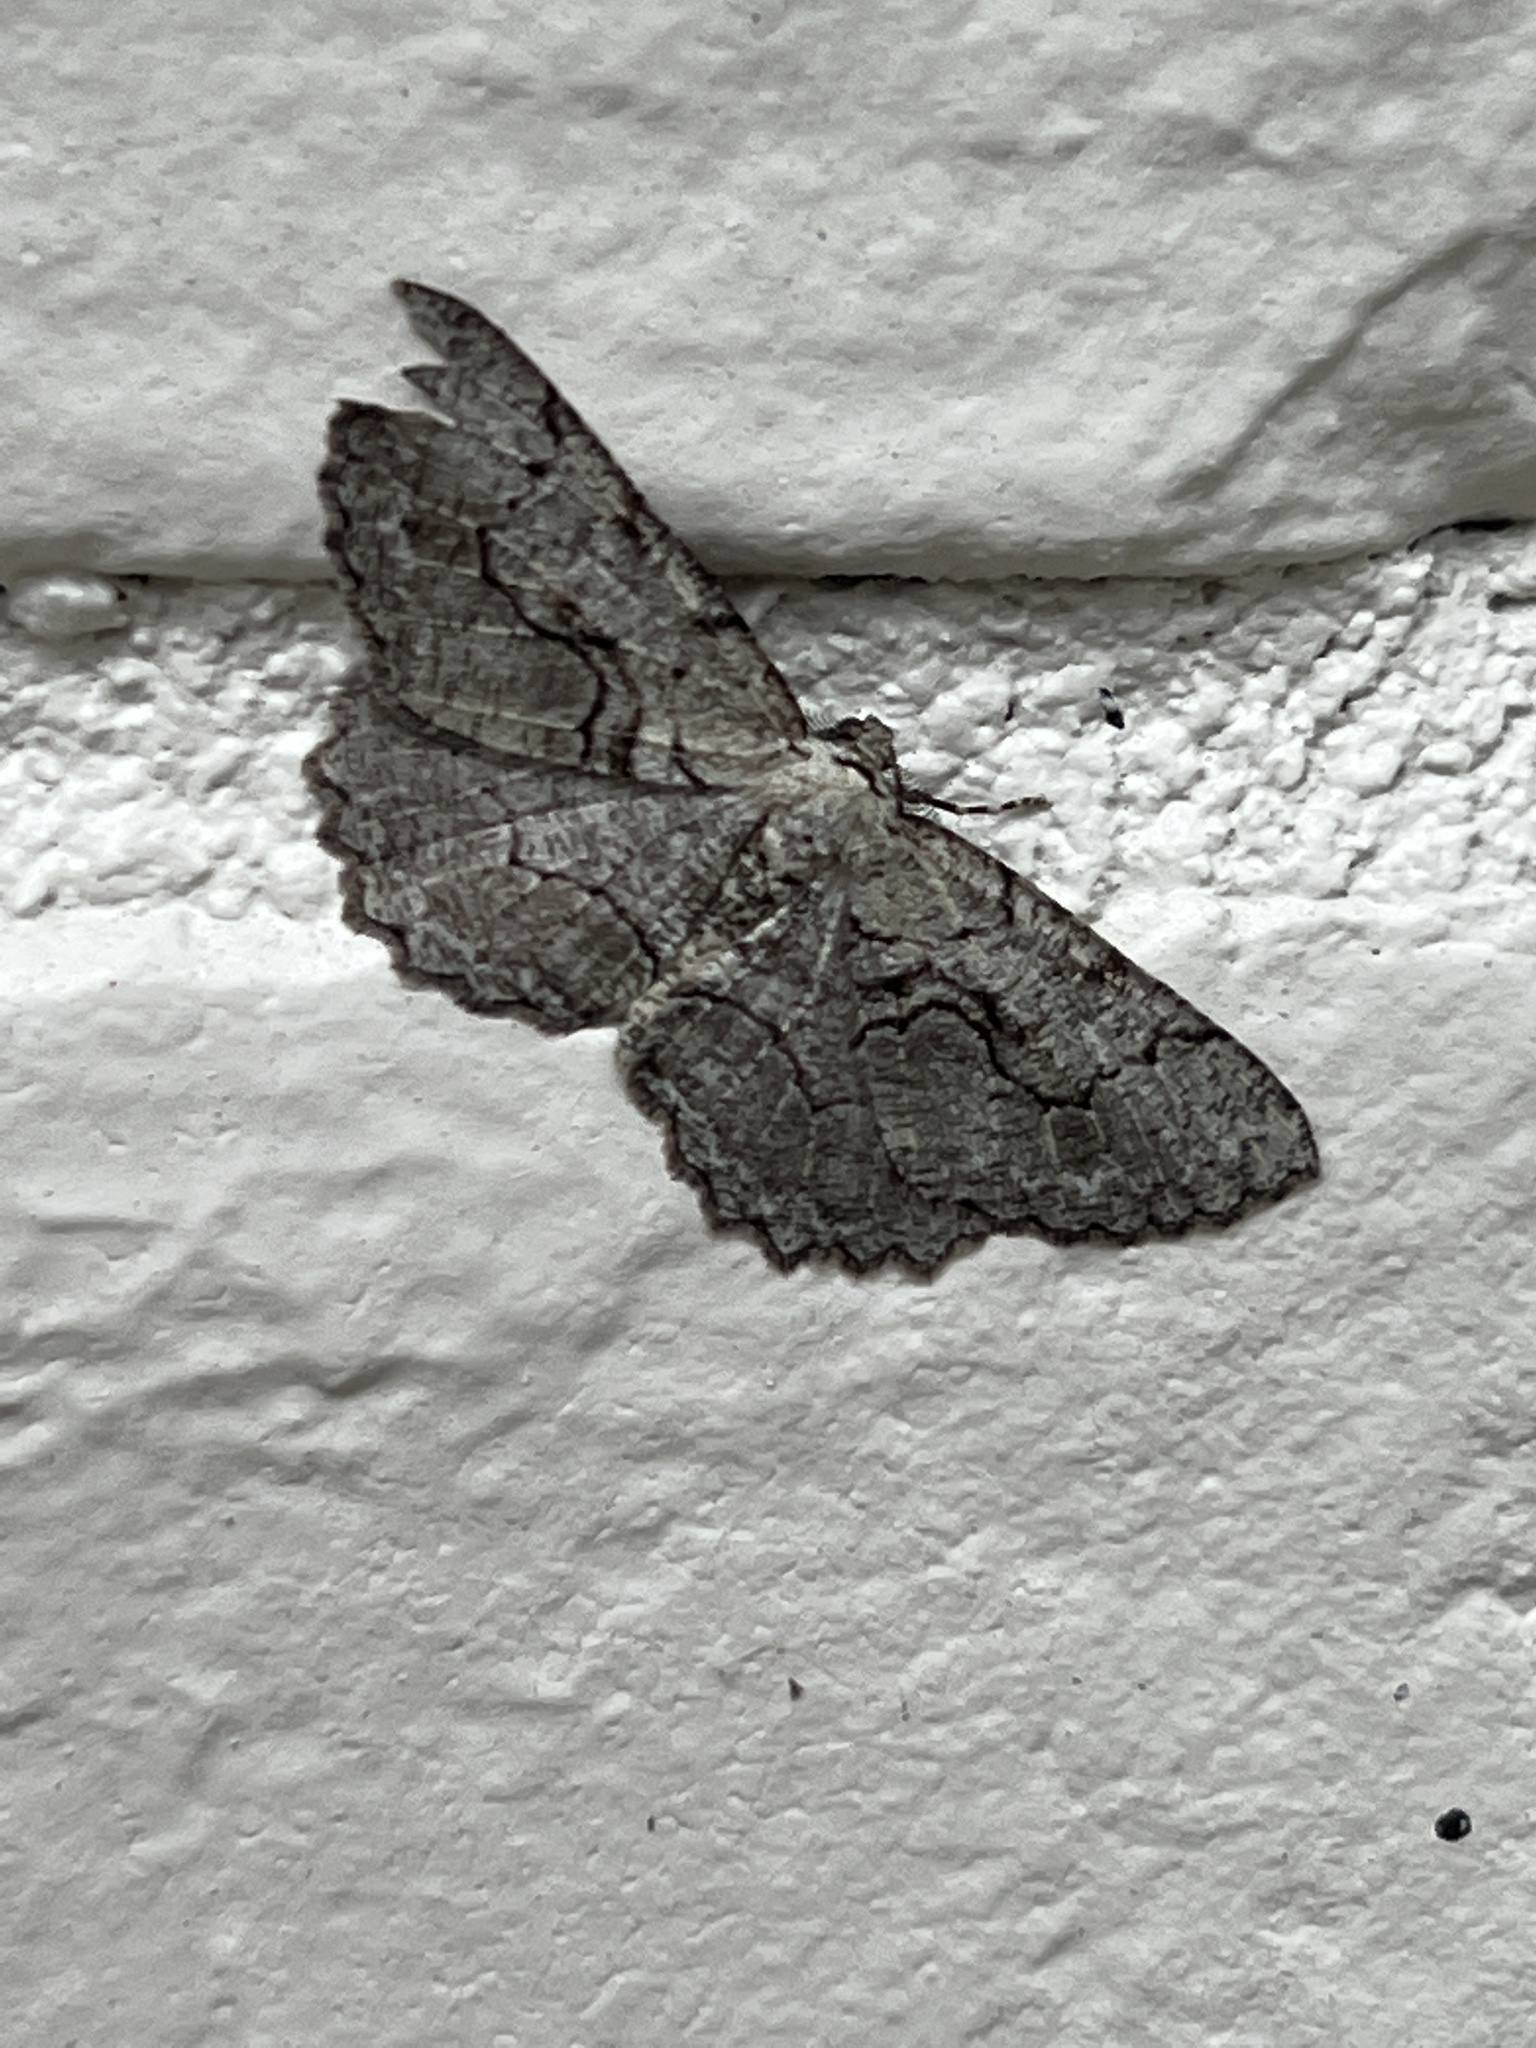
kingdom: Animalia
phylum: Arthropoda
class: Insecta
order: Lepidoptera
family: Geometridae
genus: Cymatophora
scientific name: Cymatophora approximaria
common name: Giant gray moth
